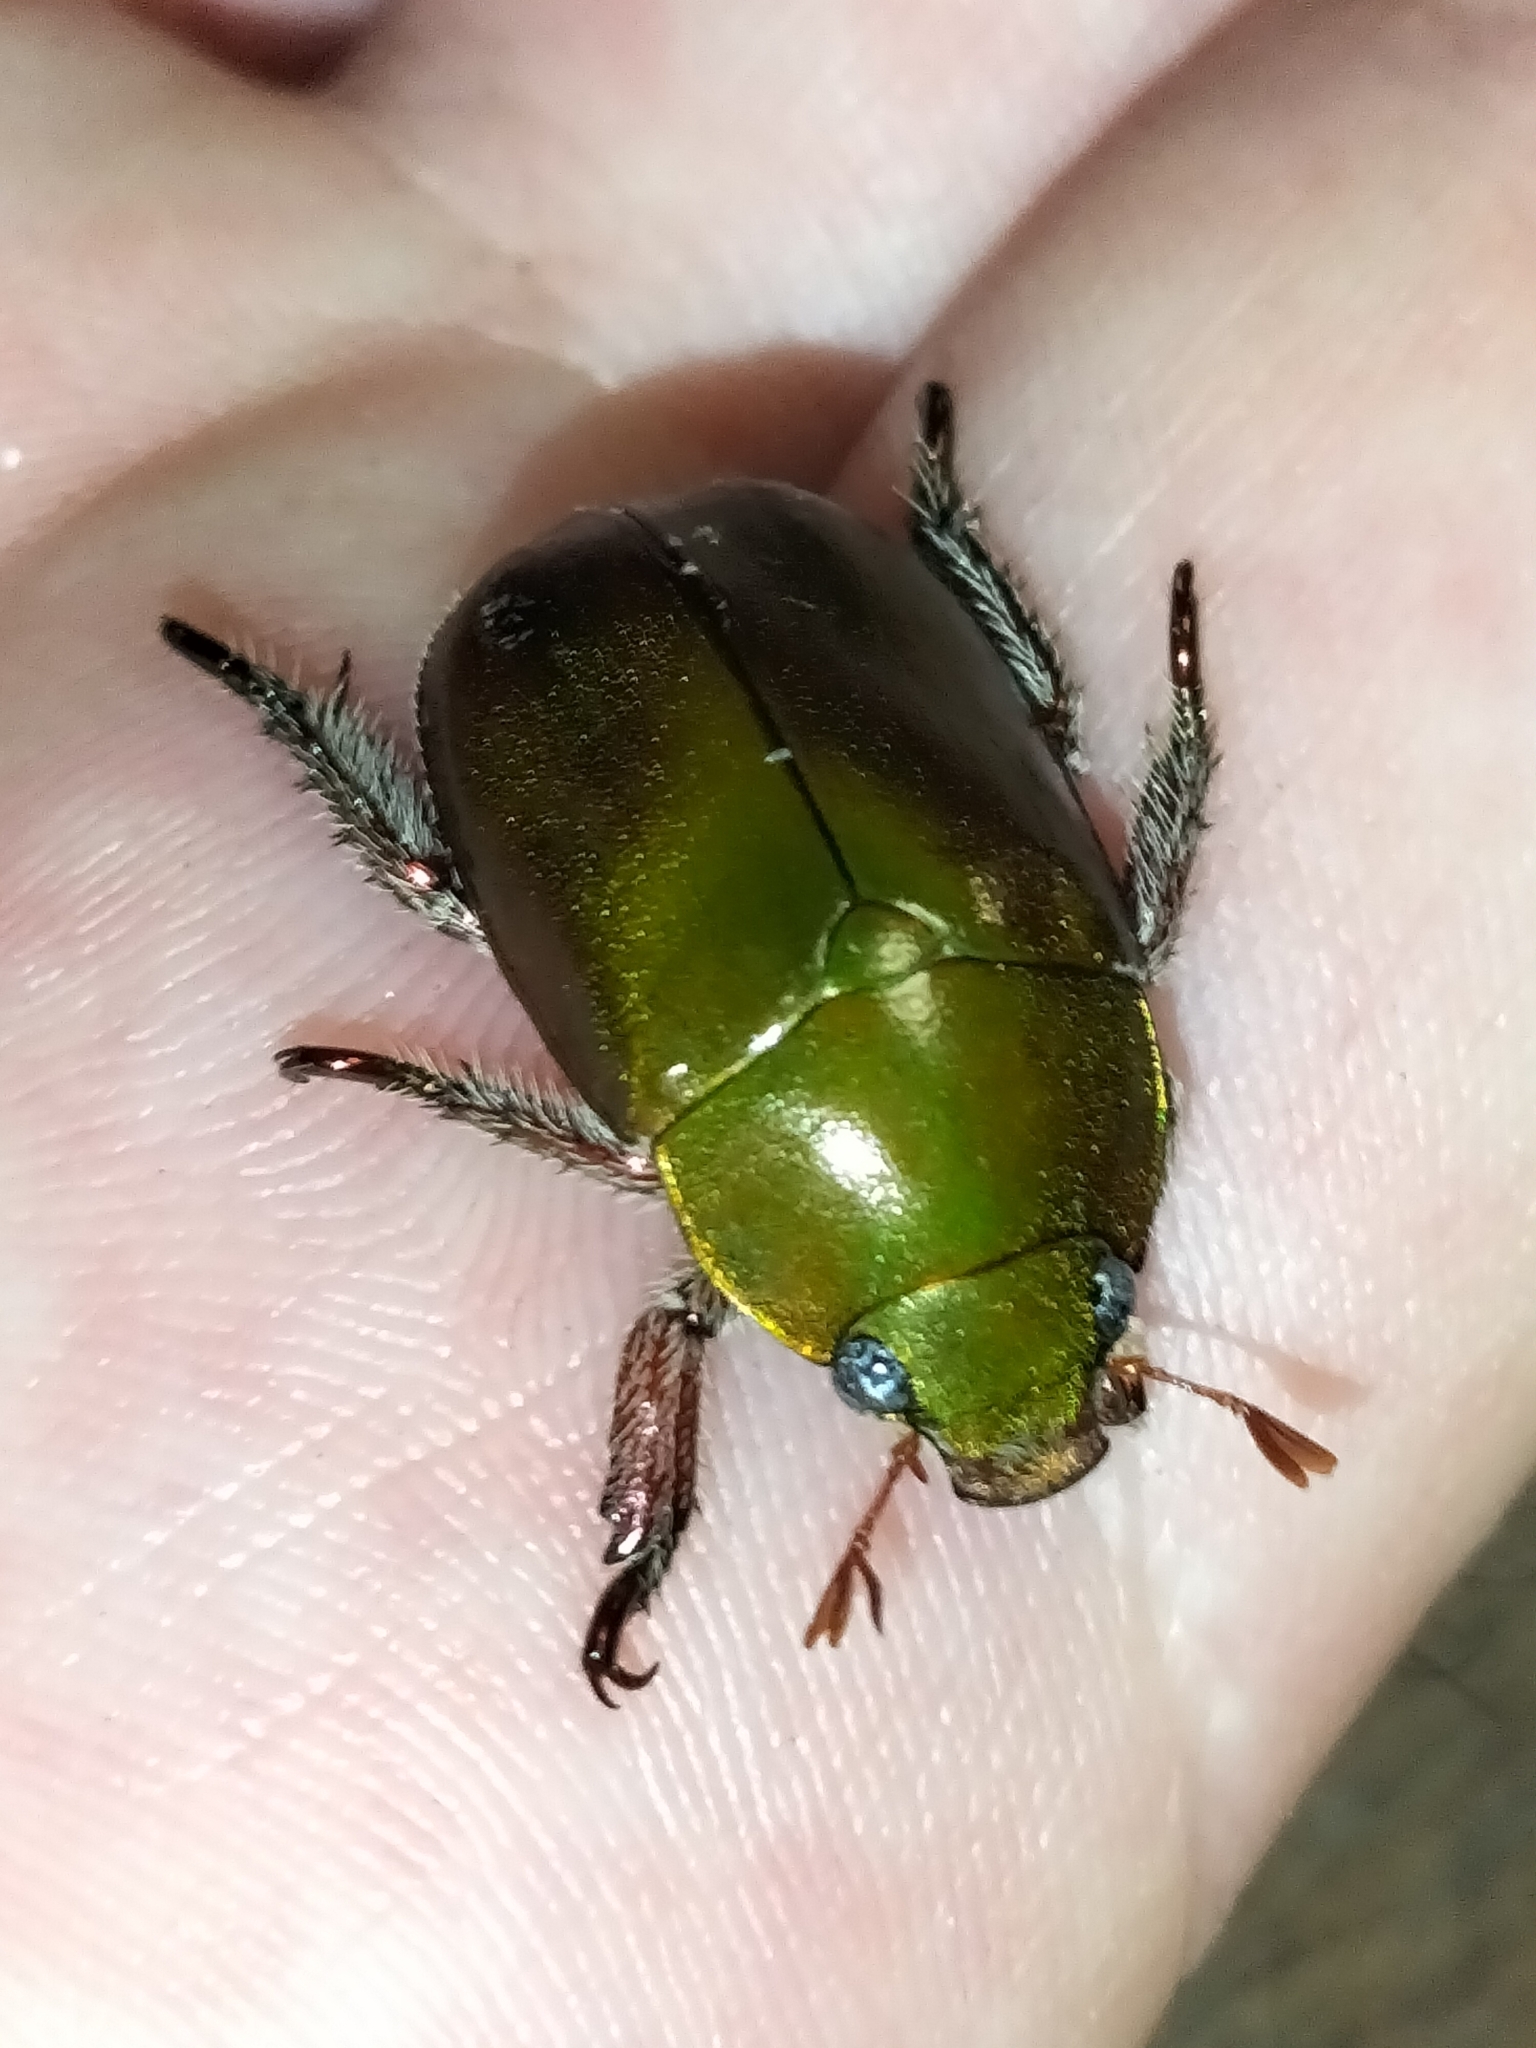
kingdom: Animalia
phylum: Arthropoda
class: Insecta
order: Coleoptera
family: Scarabaeidae
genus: Anoplognathus
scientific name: Anoplognathus punctulatus
